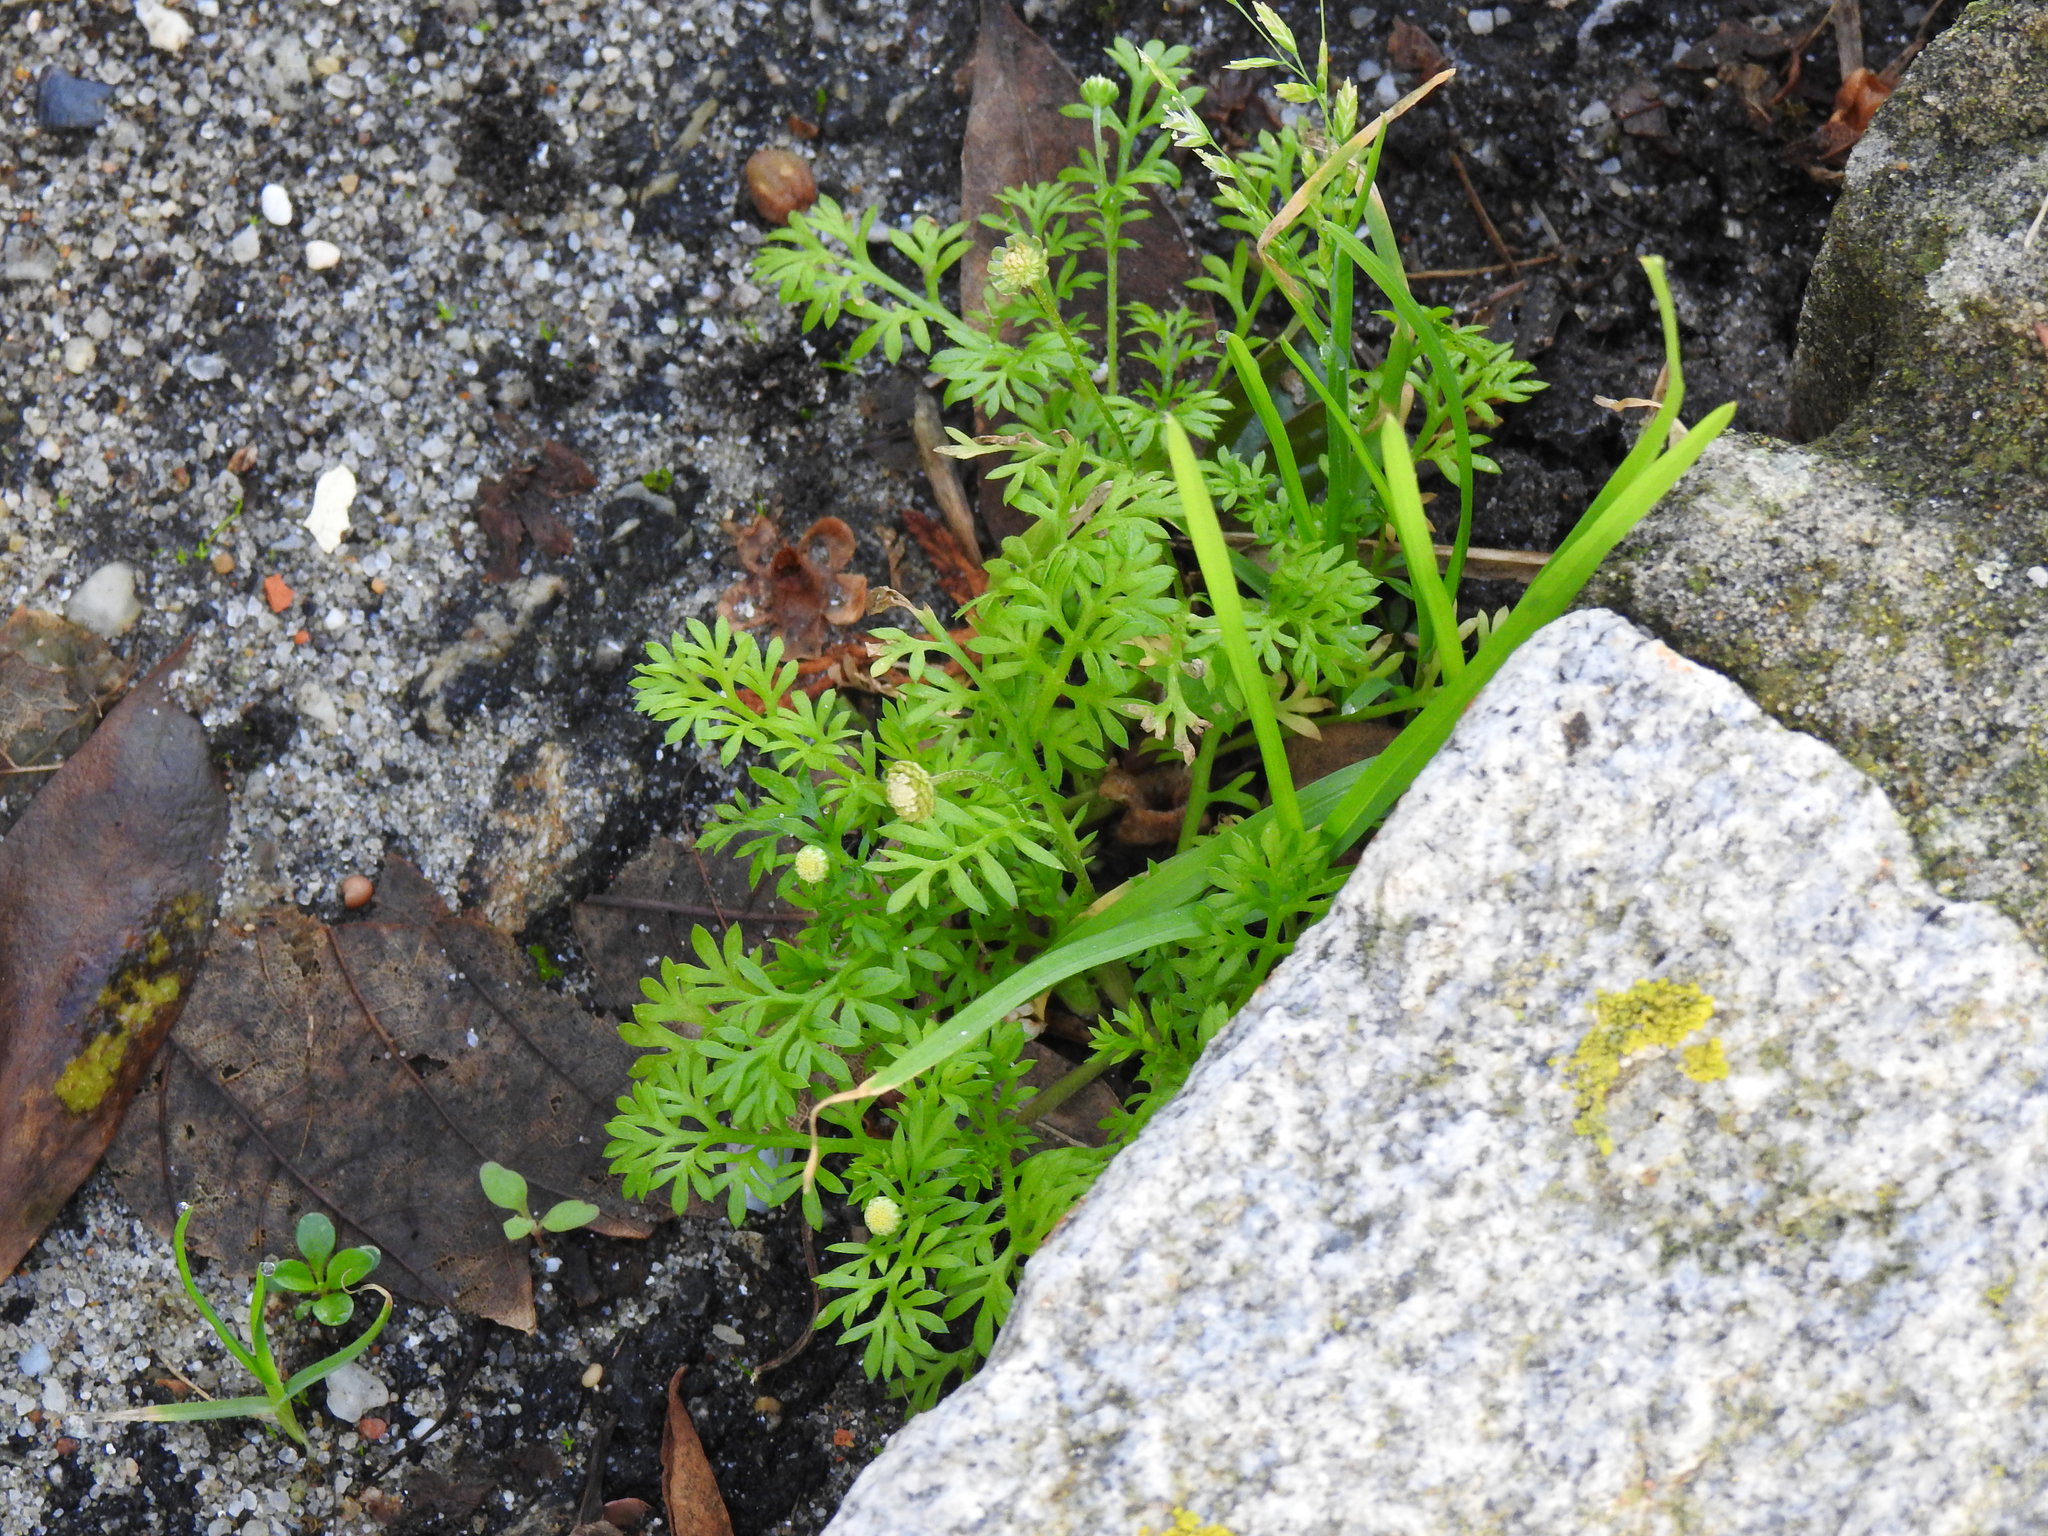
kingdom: Plantae
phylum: Tracheophyta
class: Magnoliopsida
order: Asterales
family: Asteraceae
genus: Cotula
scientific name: Cotula australis
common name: Australian waterbuttons
